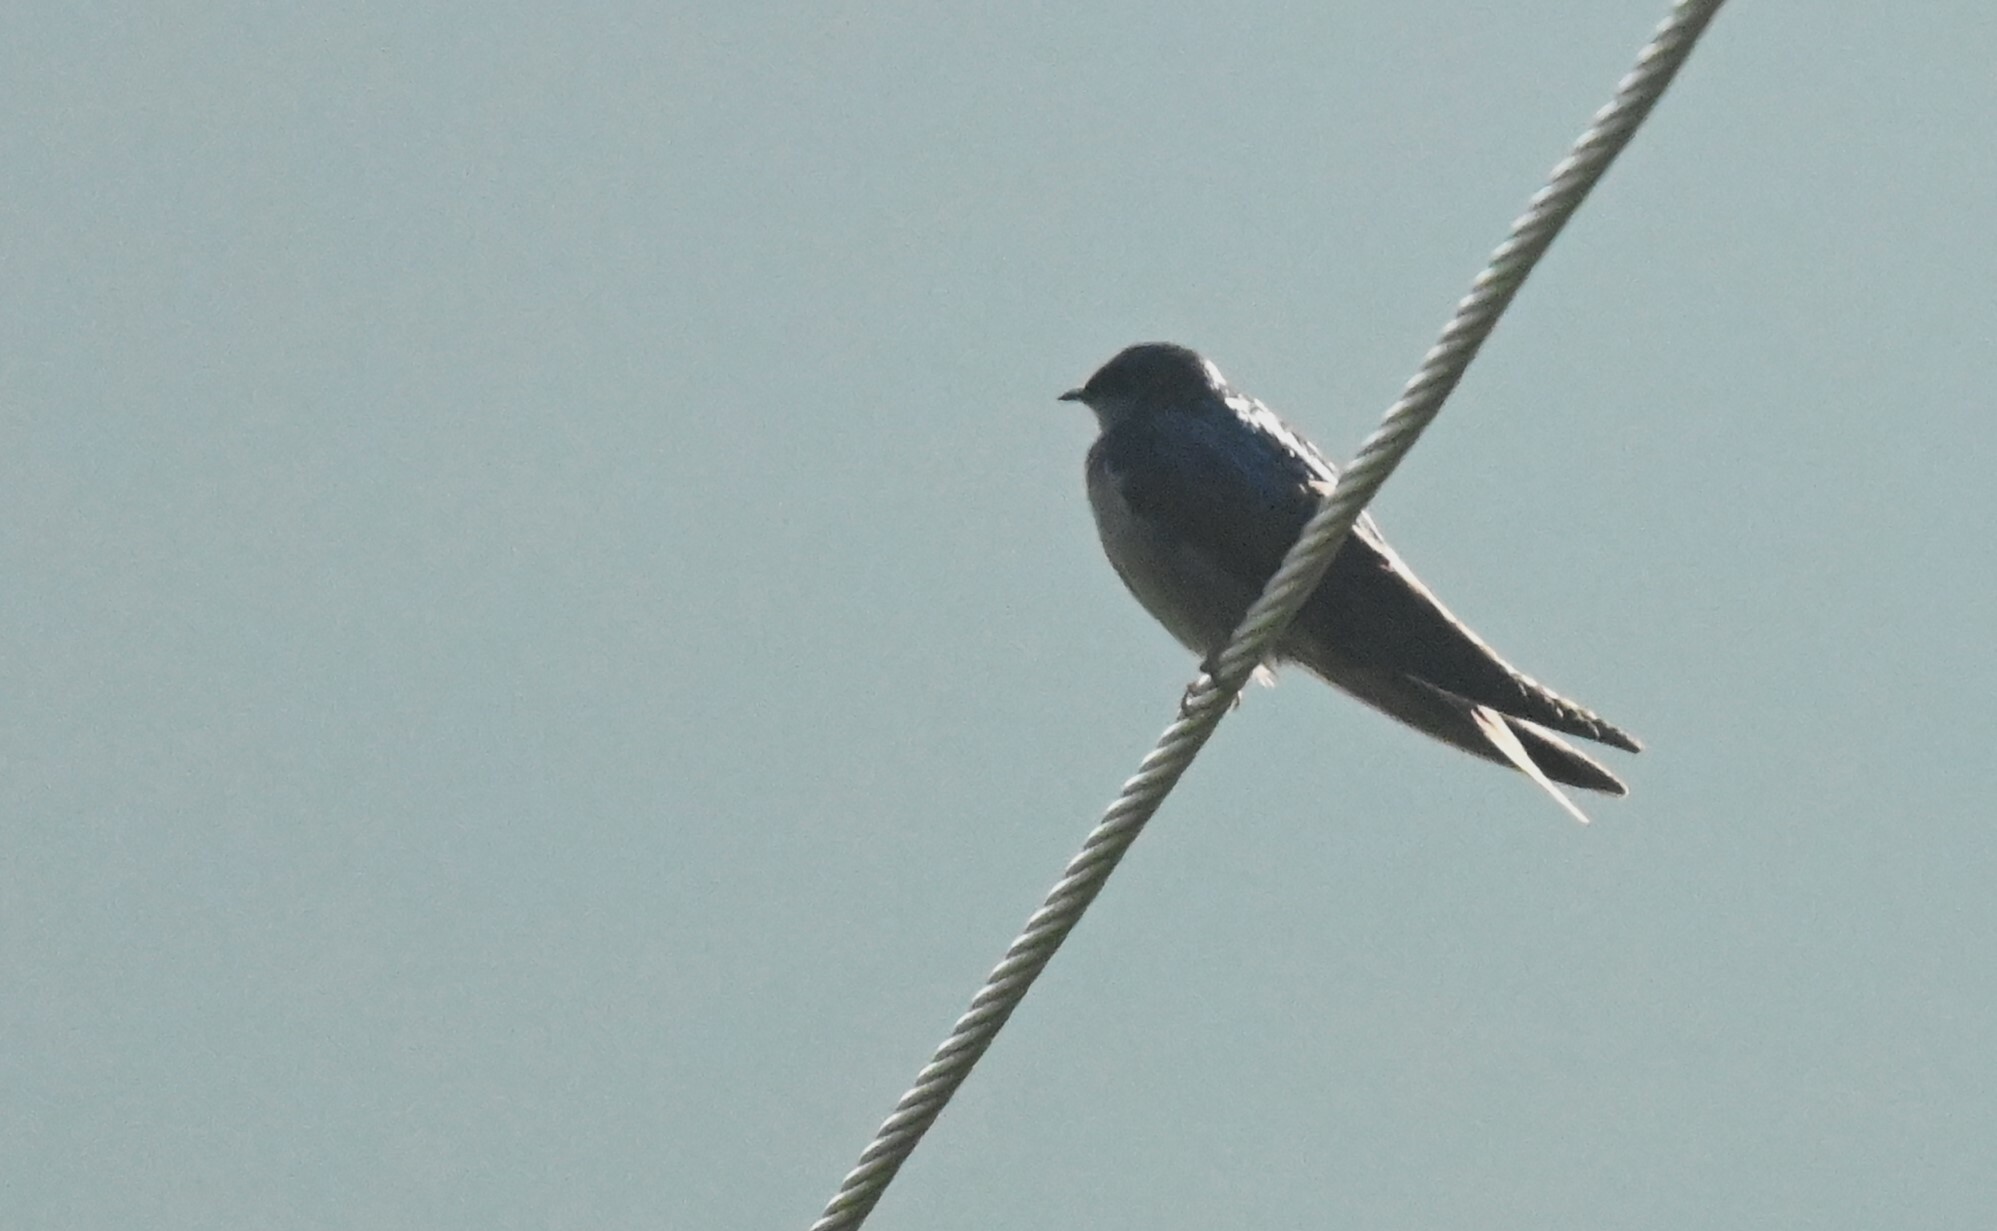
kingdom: Animalia
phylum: Chordata
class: Aves
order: Passeriformes
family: Hirundinidae
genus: Notiochelidon
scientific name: Notiochelidon murina
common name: Brown-bellied swallow
